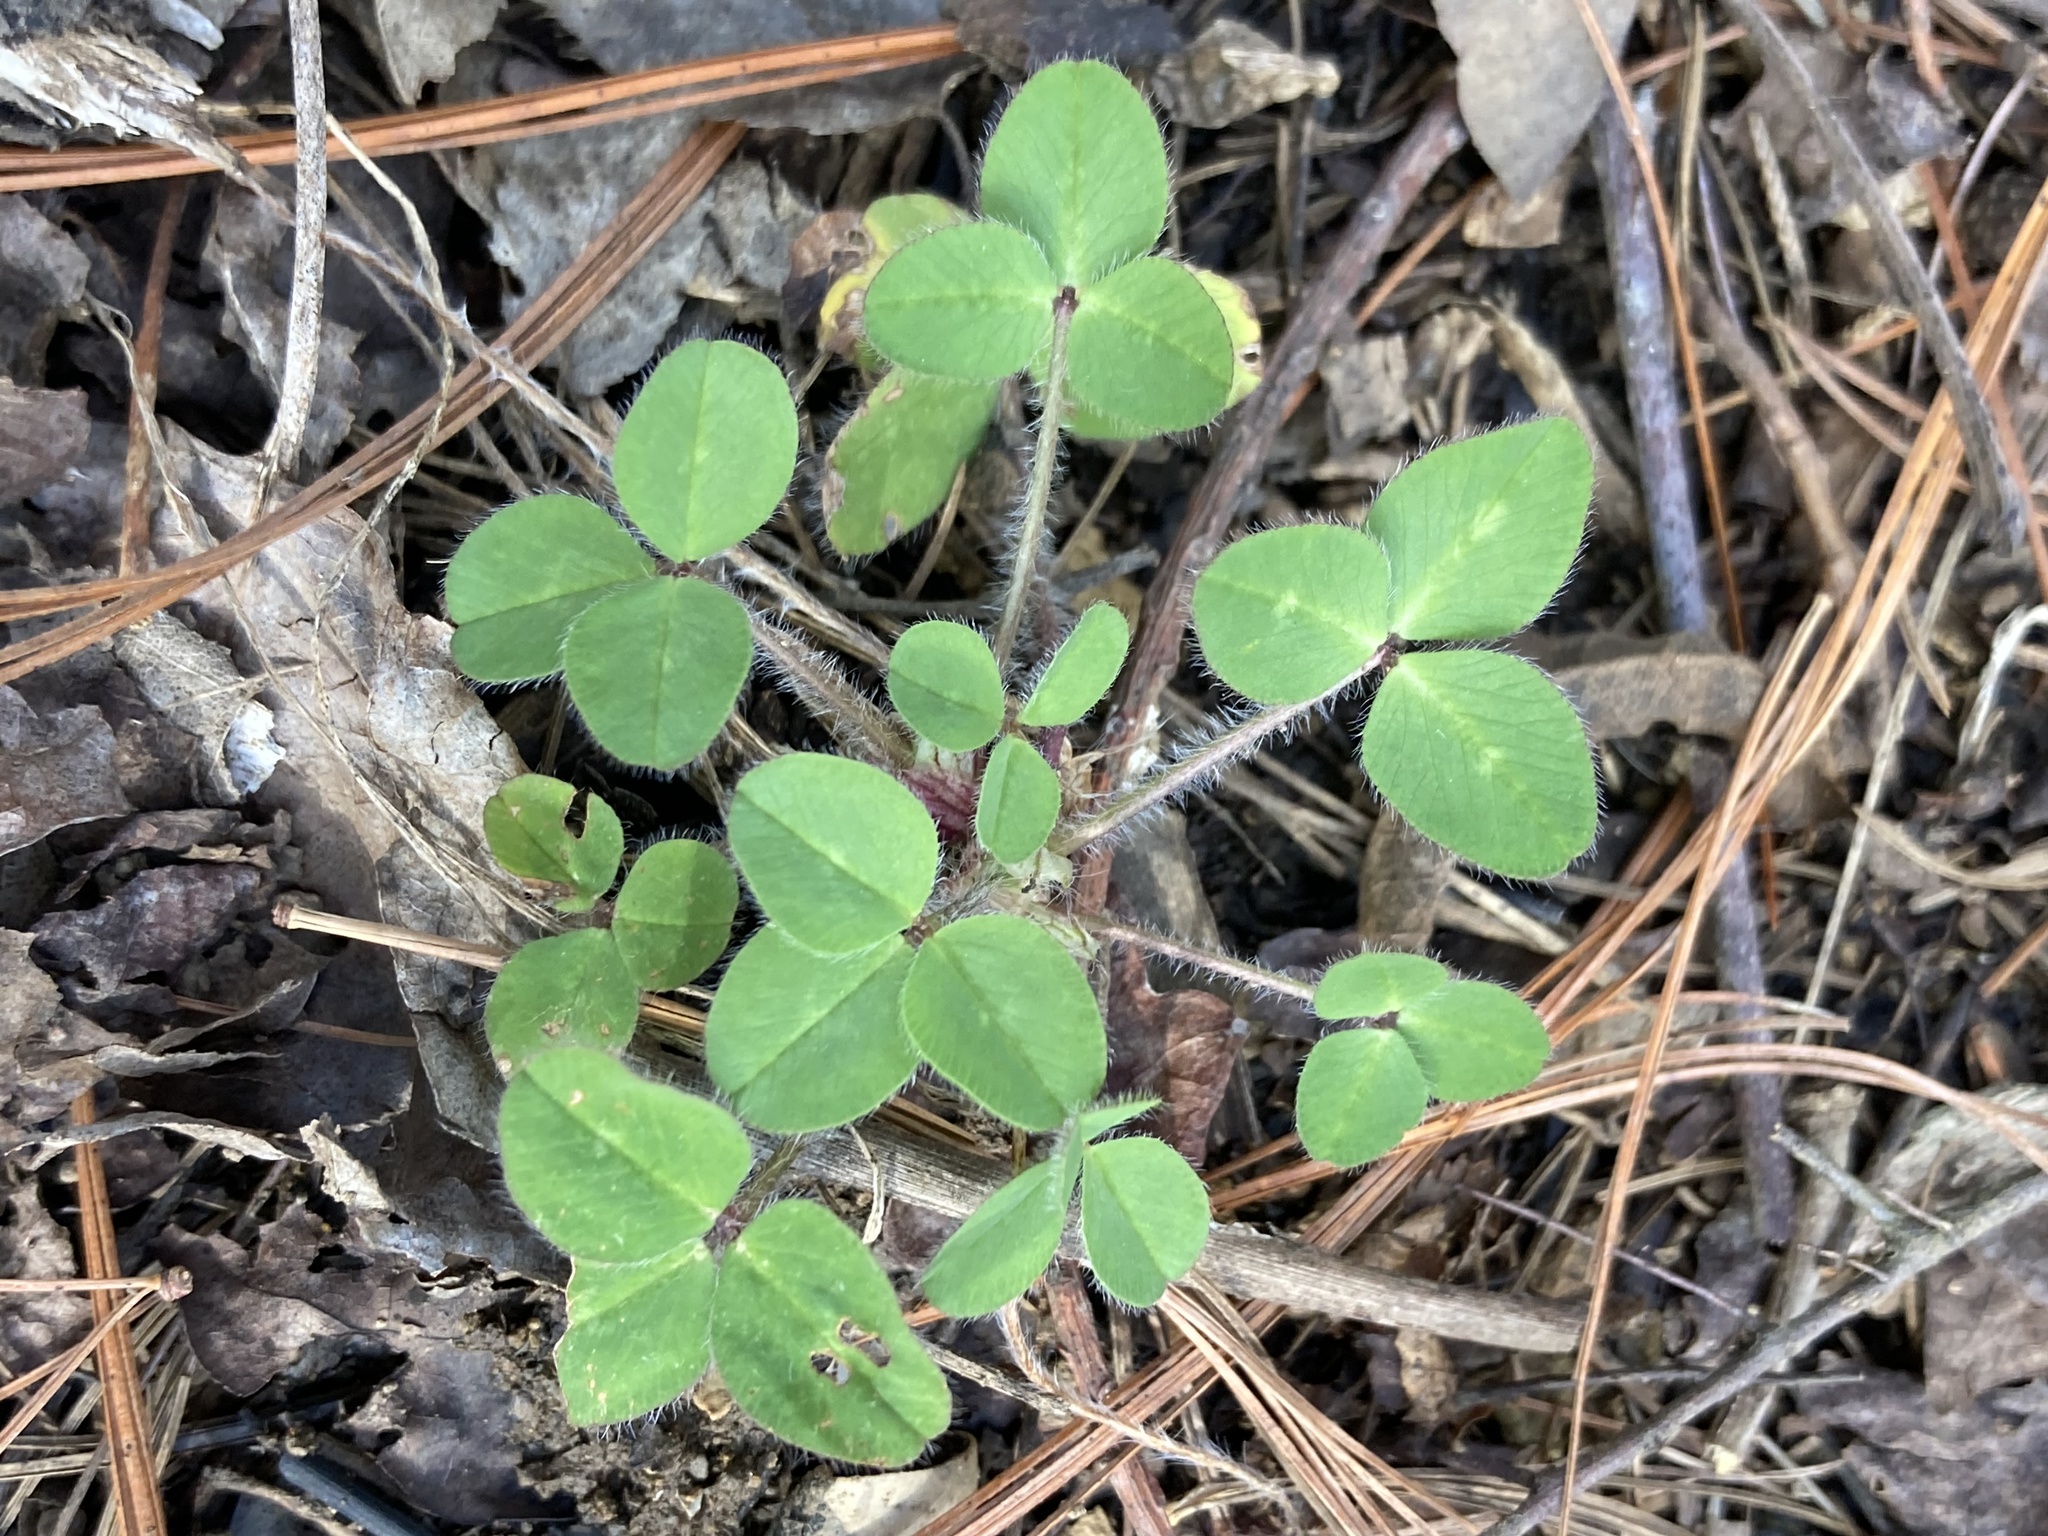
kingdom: Plantae
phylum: Tracheophyta
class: Magnoliopsida
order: Fabales
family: Fabaceae
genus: Trifolium
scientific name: Trifolium pratense
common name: Red clover
